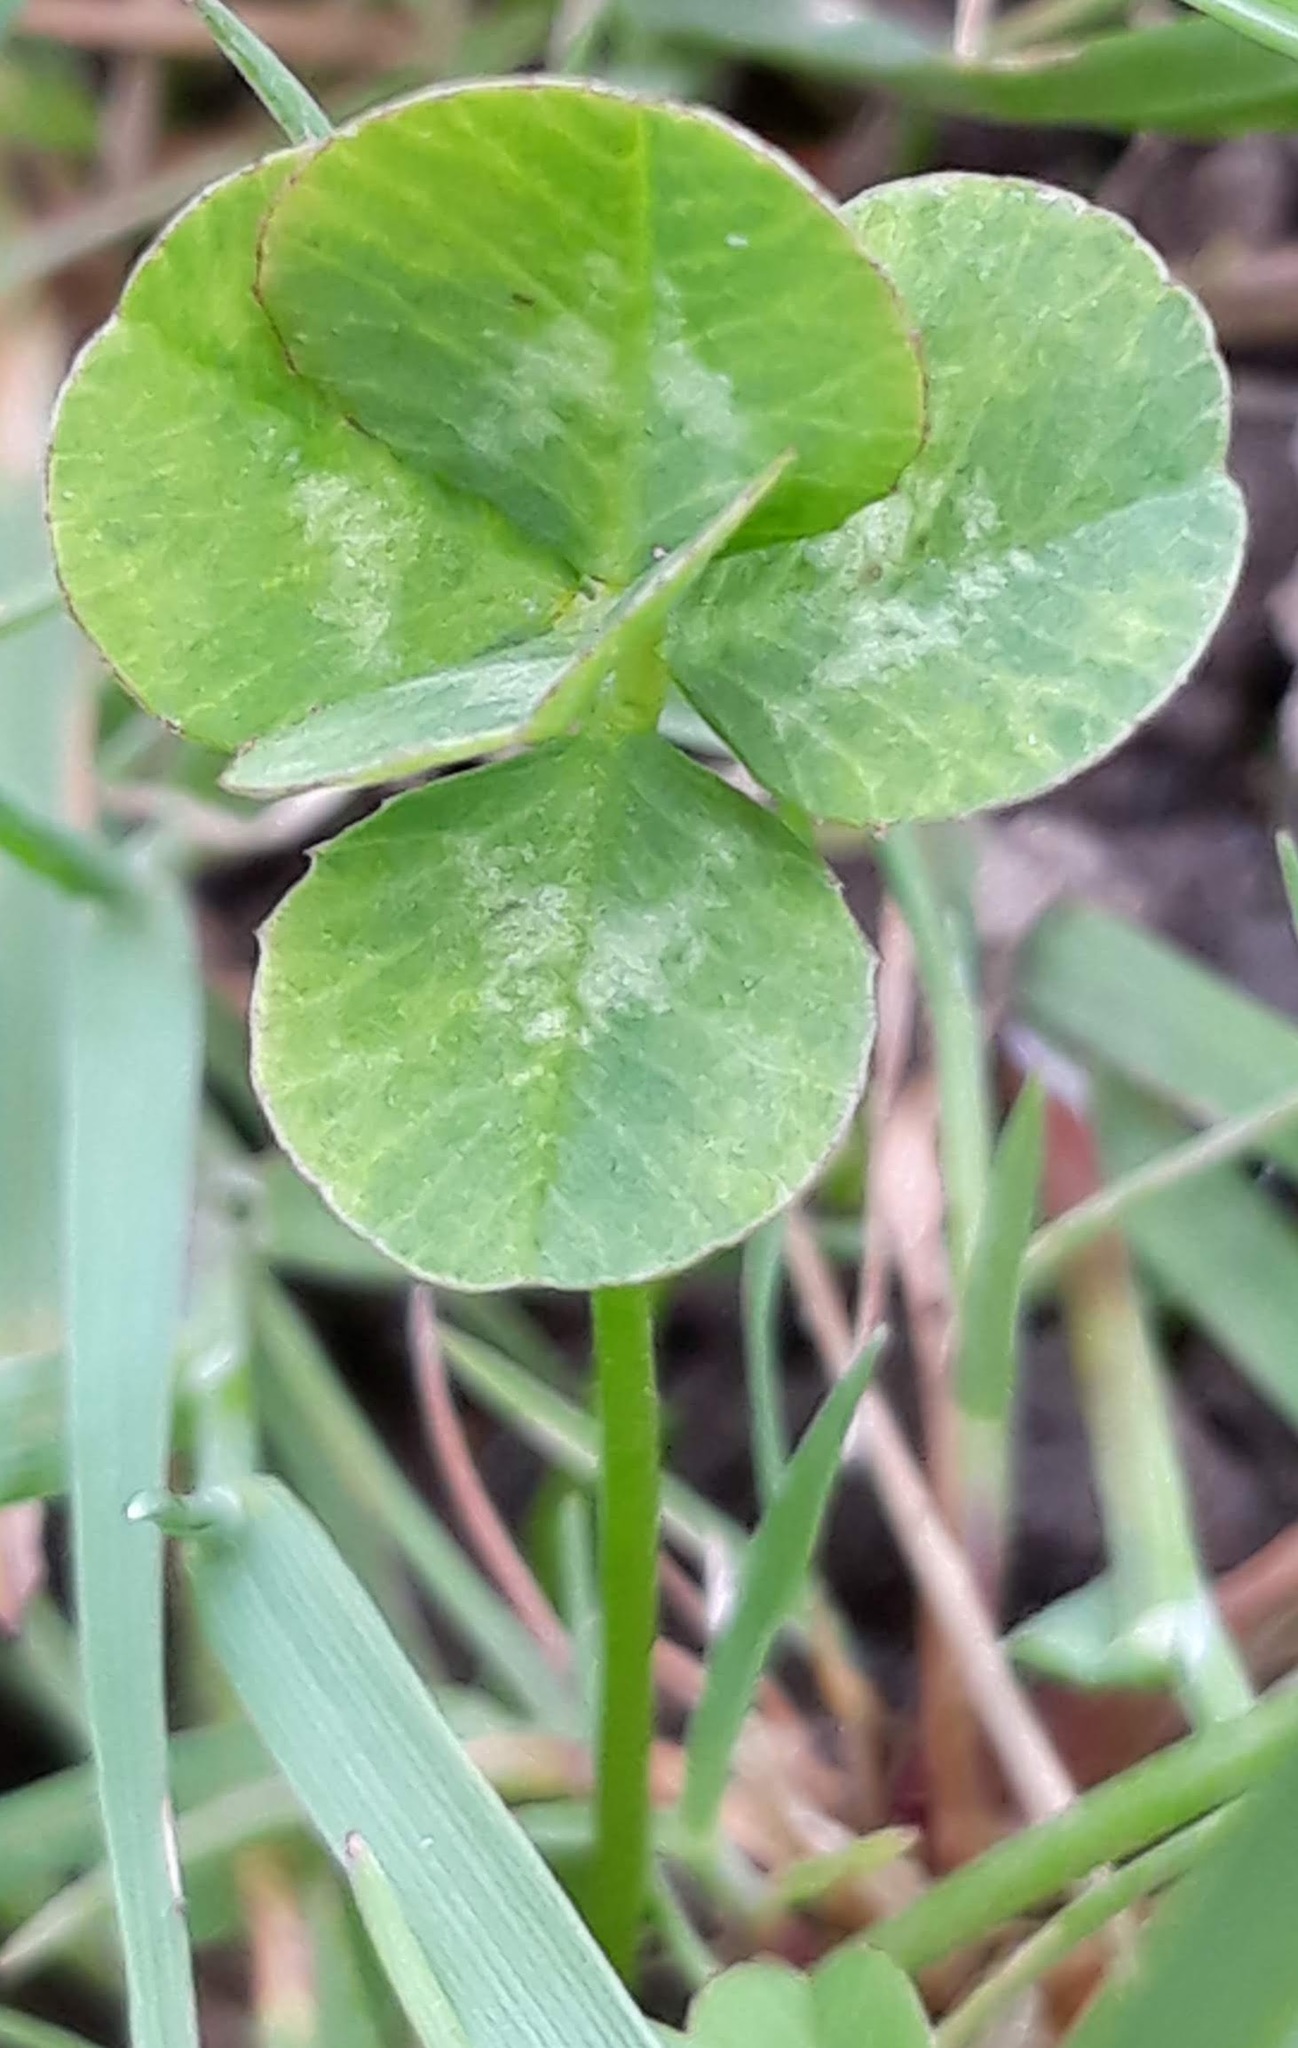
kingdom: Plantae
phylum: Tracheophyta
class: Magnoliopsida
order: Fabales
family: Fabaceae
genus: Trifolium
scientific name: Trifolium repens
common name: White clover
